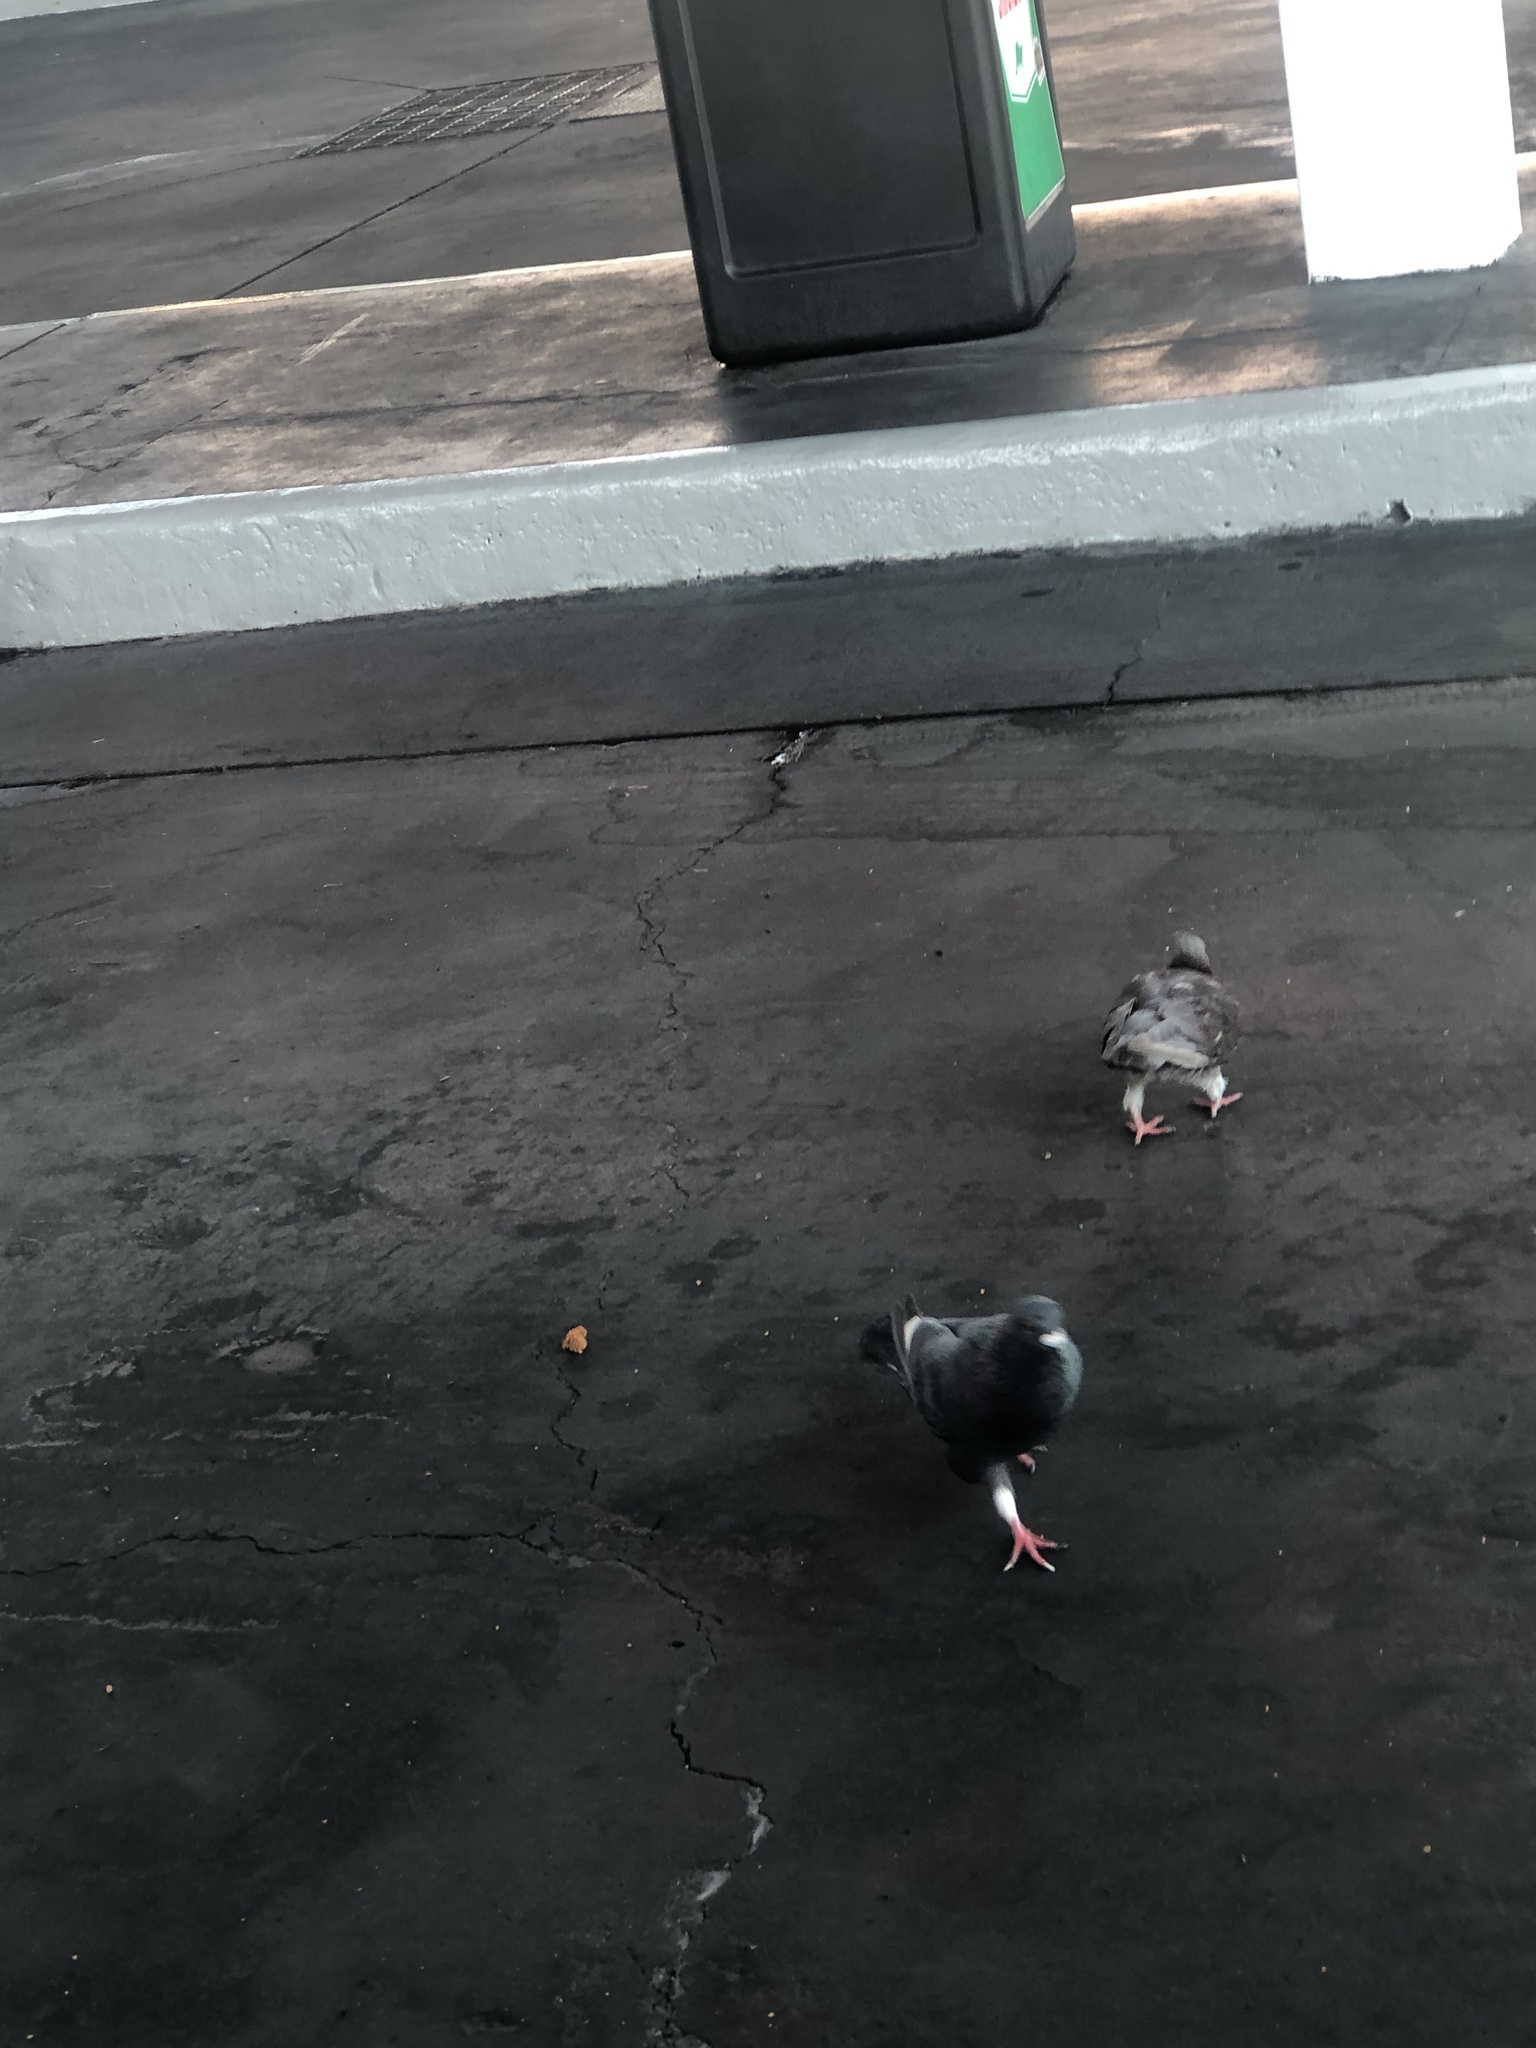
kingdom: Animalia
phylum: Chordata
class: Aves
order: Columbiformes
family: Columbidae
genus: Columba
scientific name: Columba livia
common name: Rock pigeon
